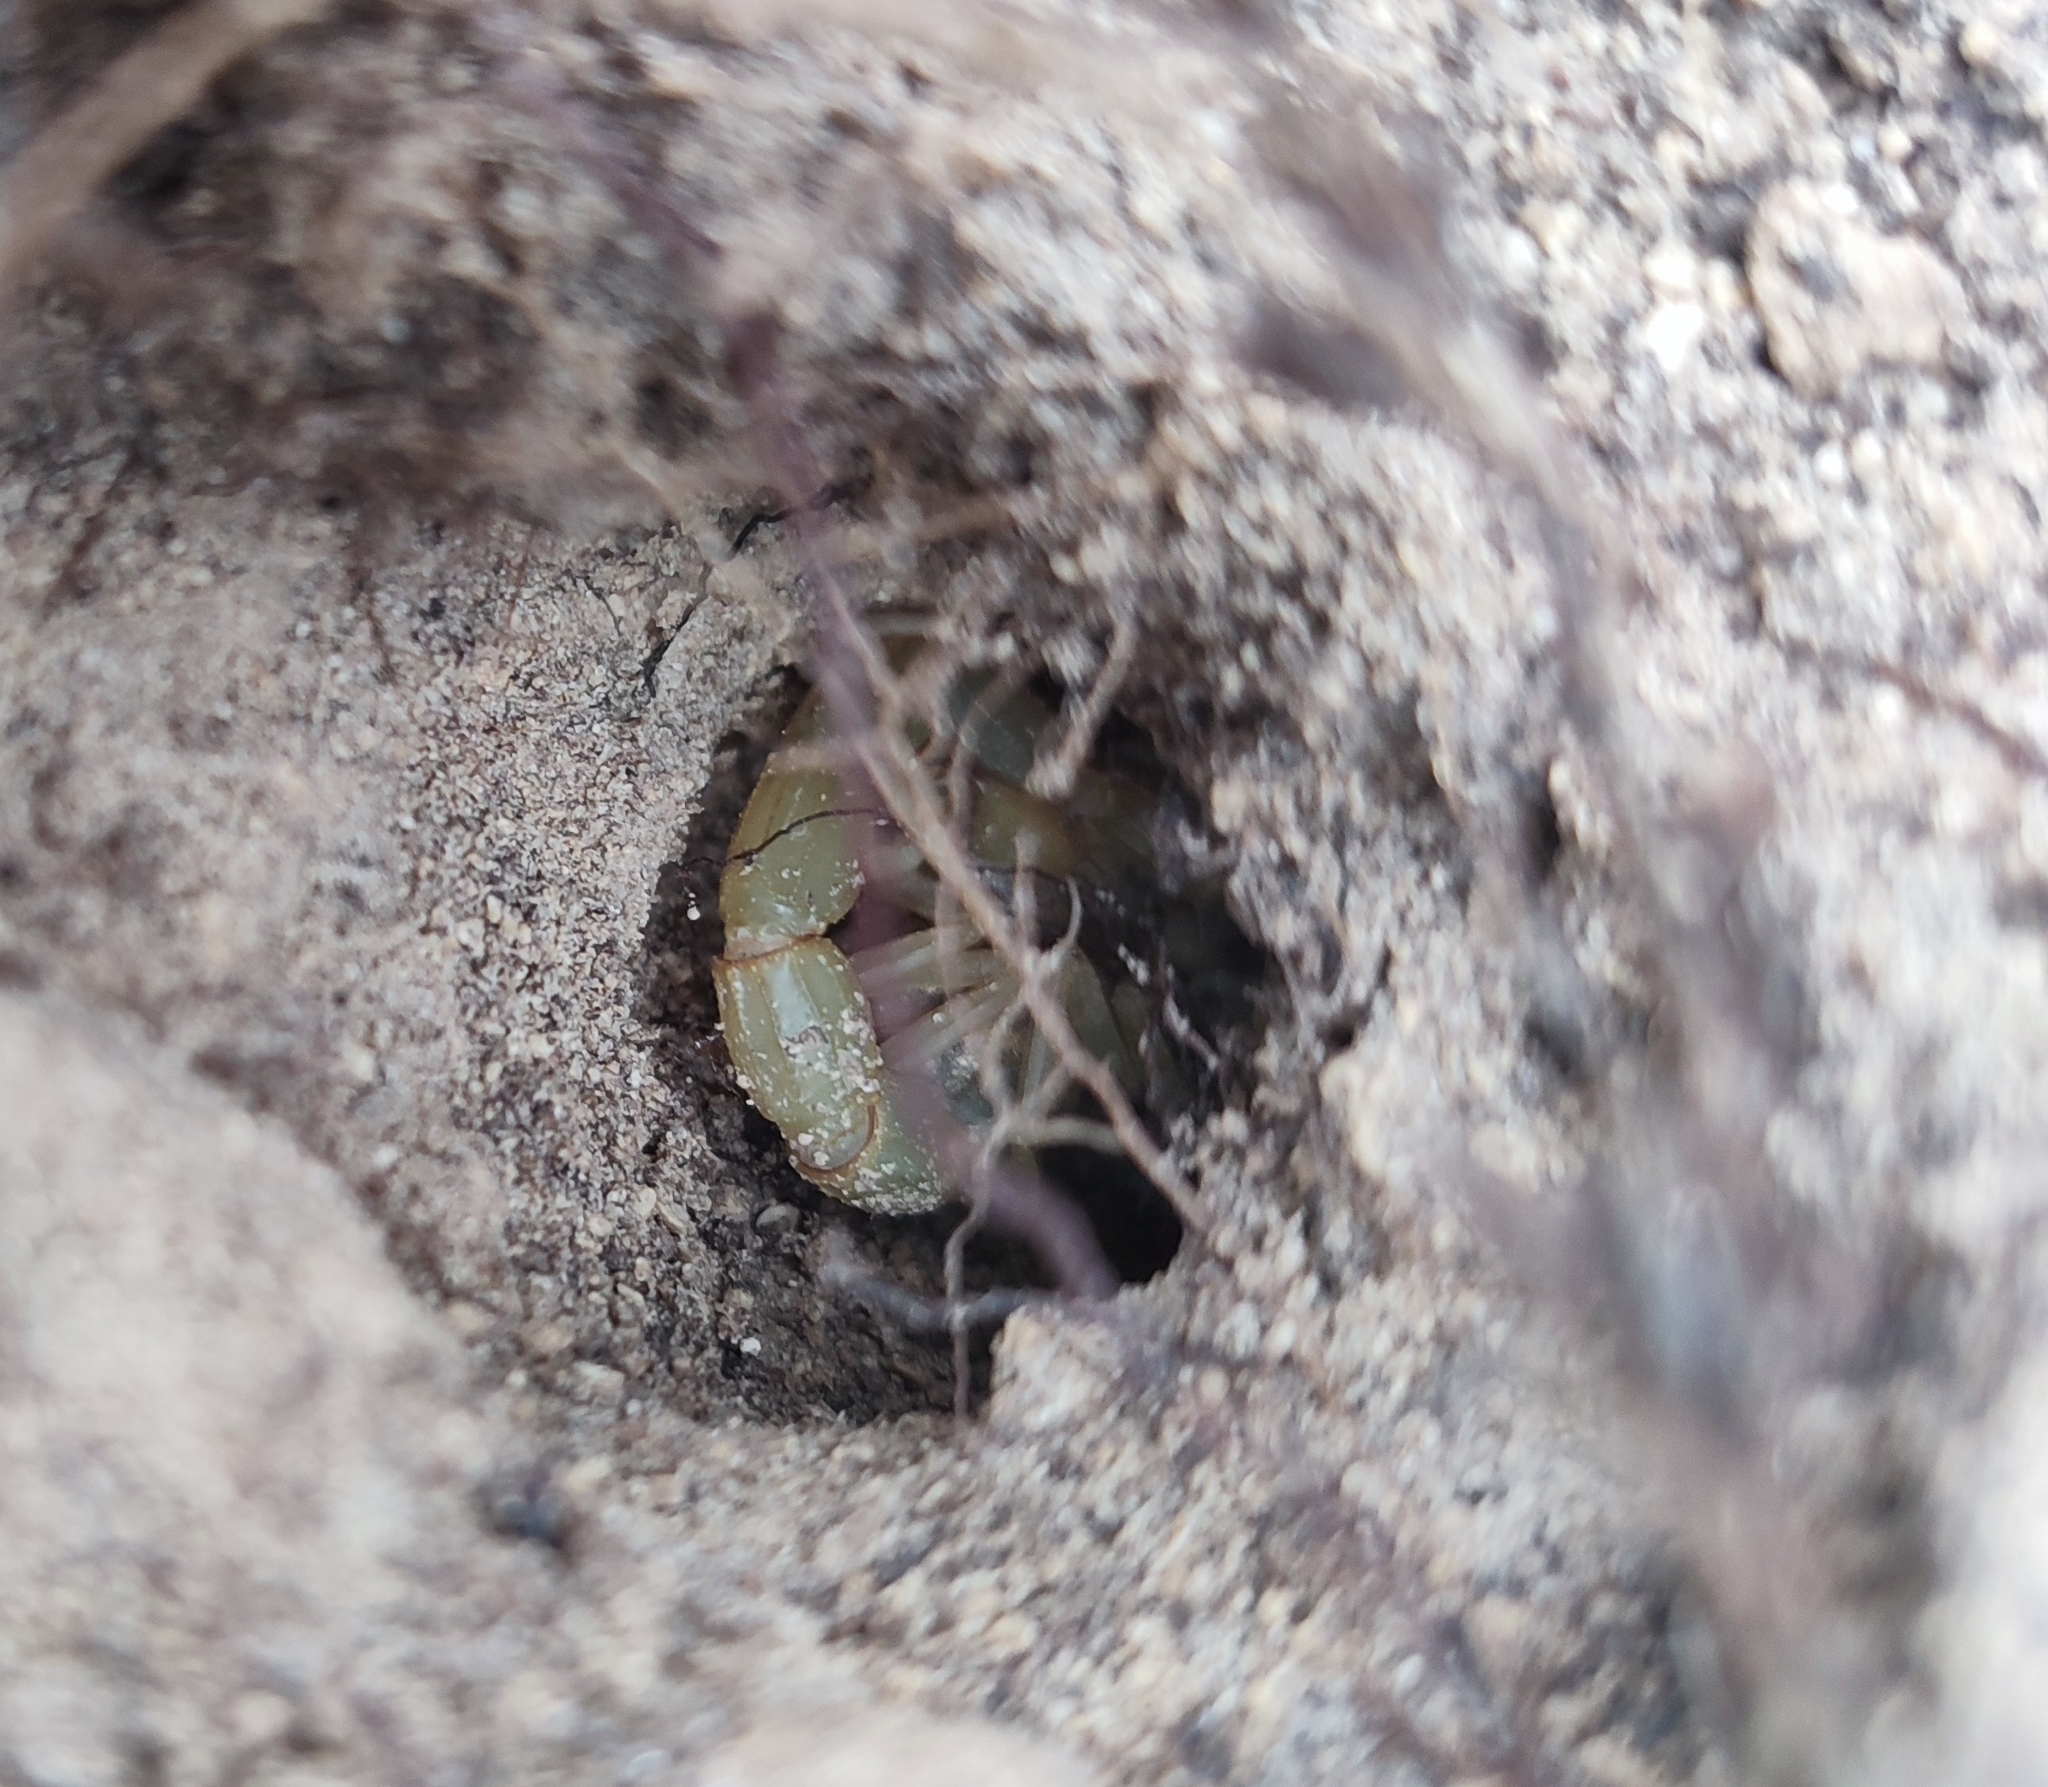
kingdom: Animalia
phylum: Arthropoda
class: Arachnida
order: Scorpiones
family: Buthidae
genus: Buthus
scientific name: Buthus occitanus
